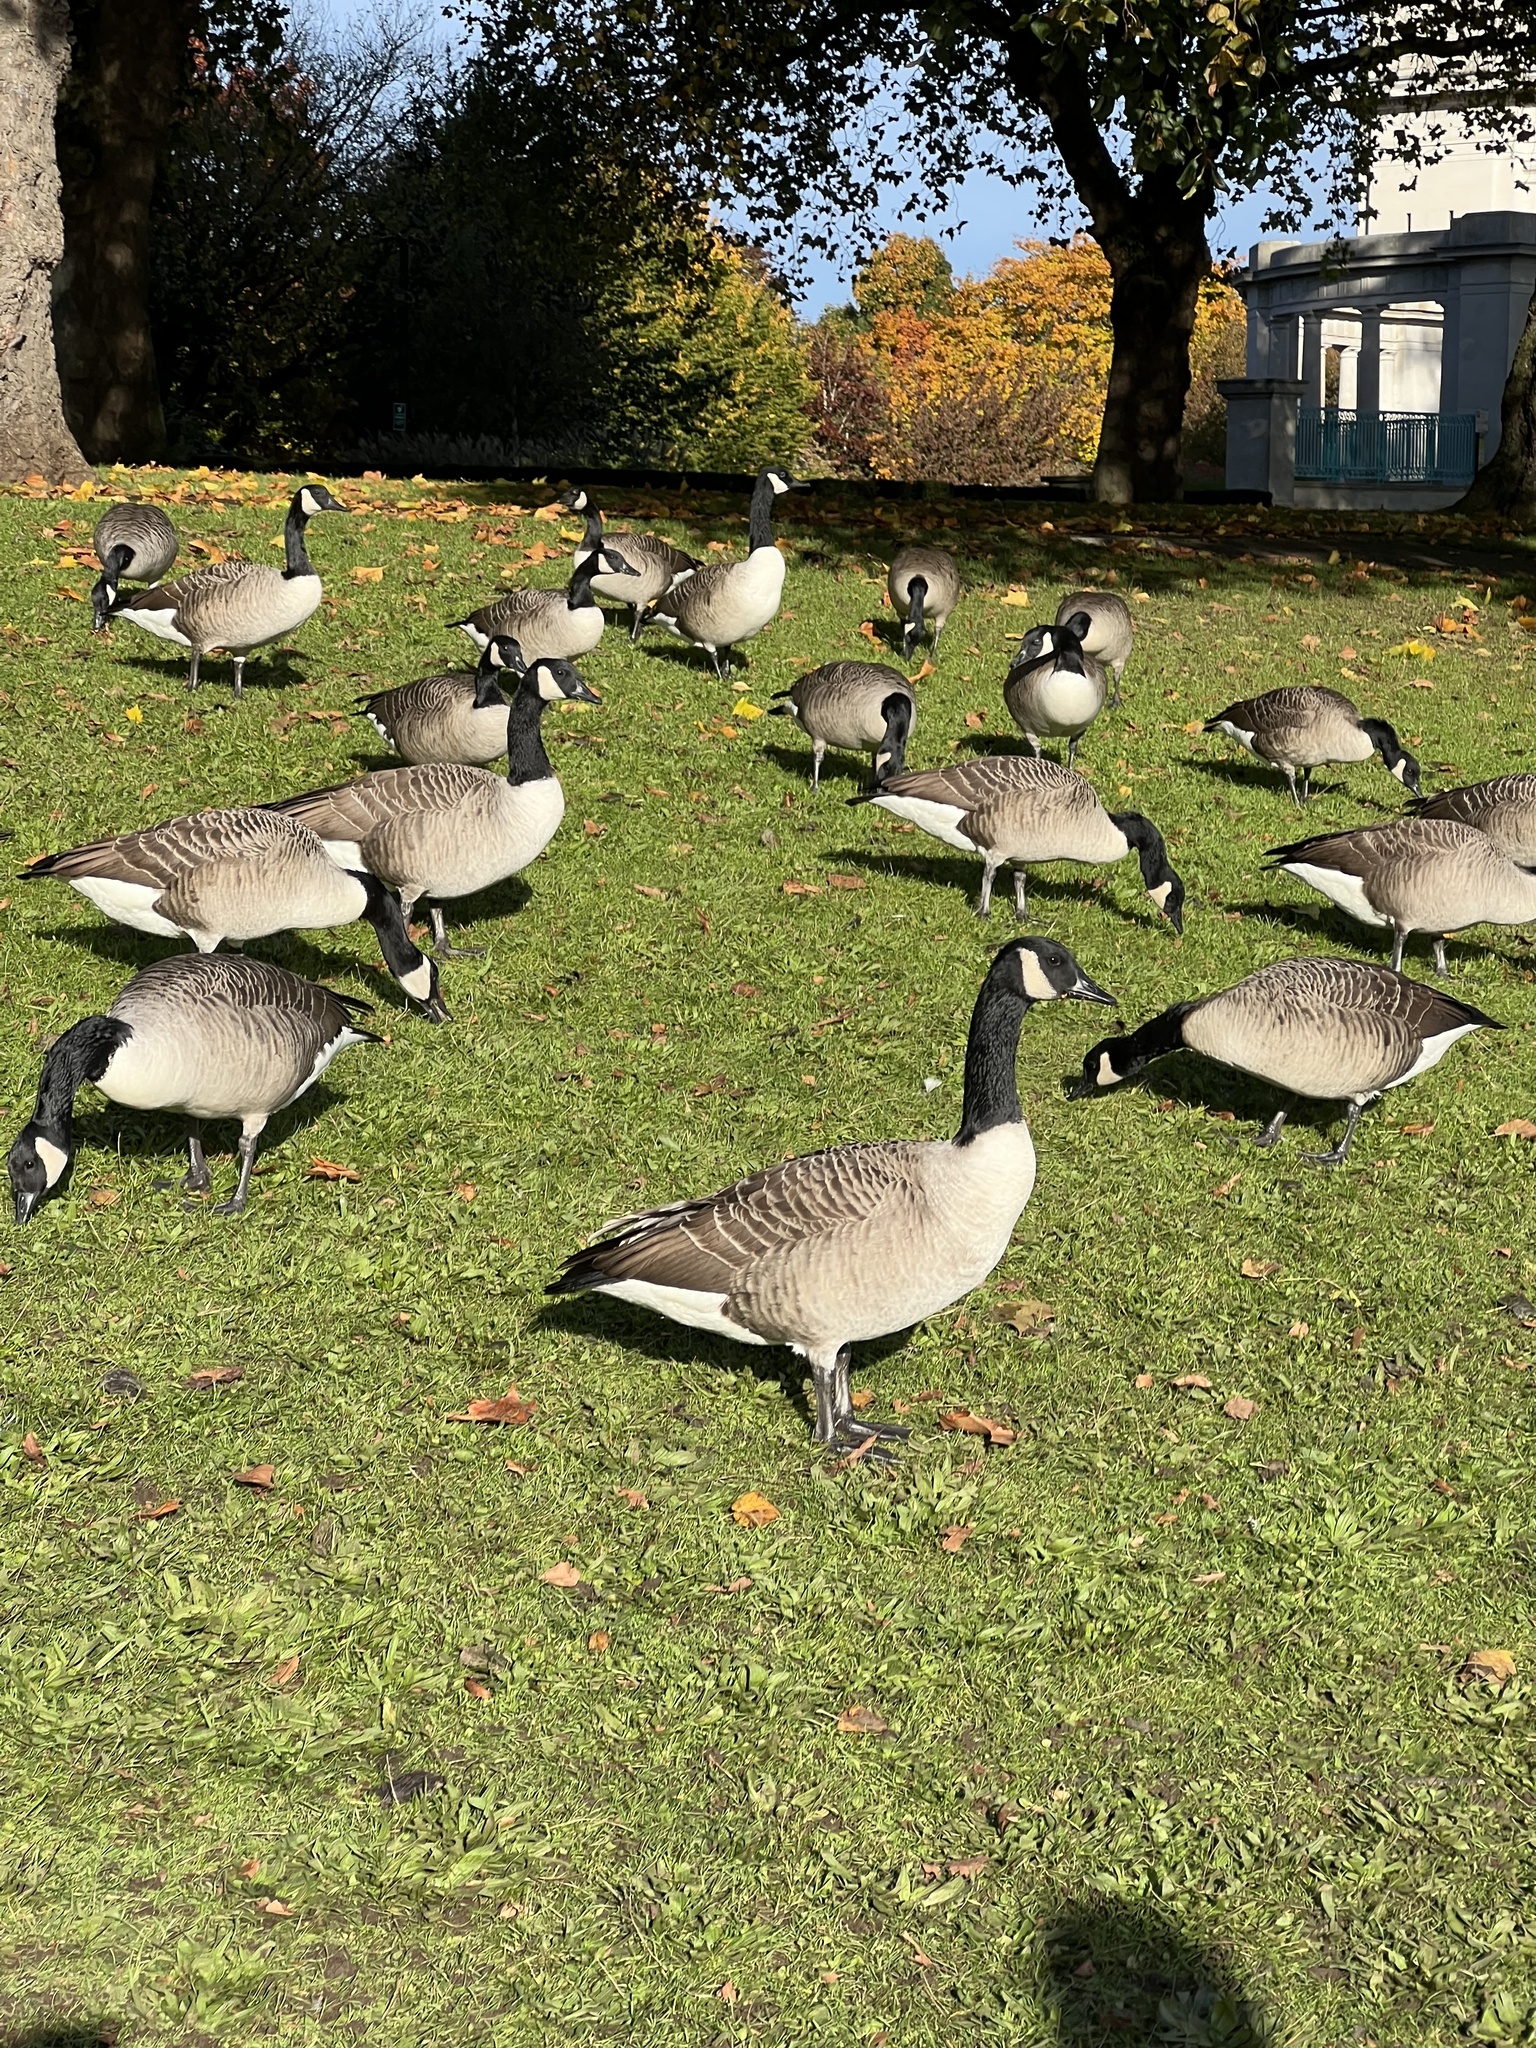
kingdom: Animalia
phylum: Chordata
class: Aves
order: Anseriformes
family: Anatidae
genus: Branta
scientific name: Branta canadensis
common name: Canada goose
